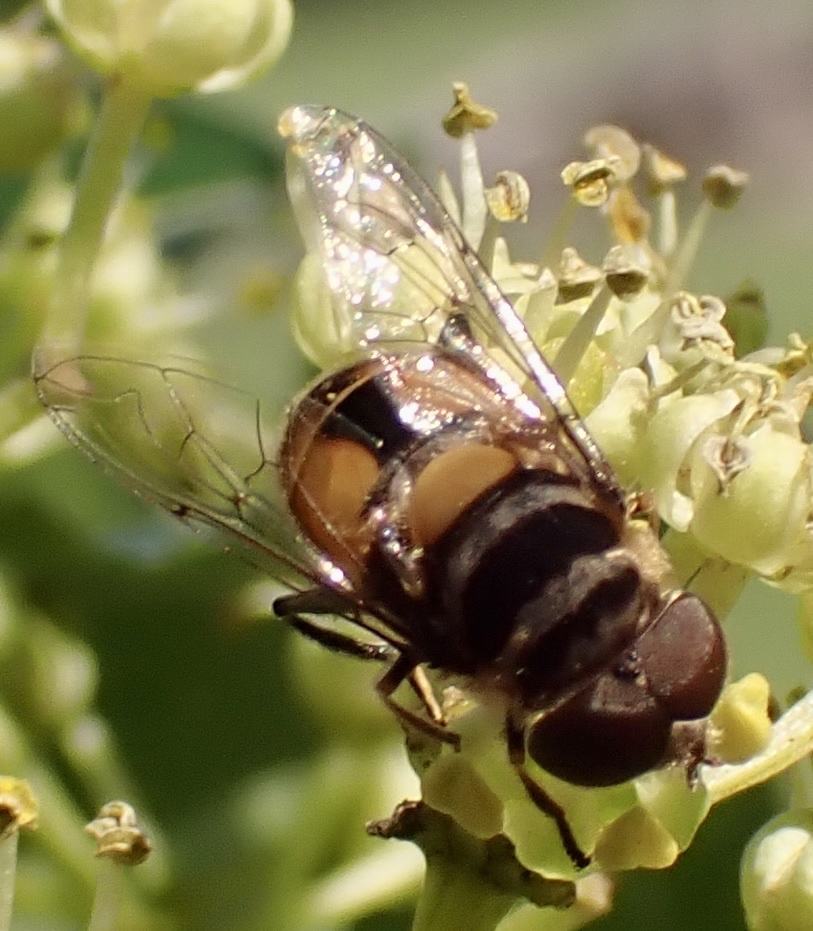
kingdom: Animalia
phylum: Arthropoda
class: Insecta
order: Diptera
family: Syrphidae
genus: Palpada
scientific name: Palpada agrorum
